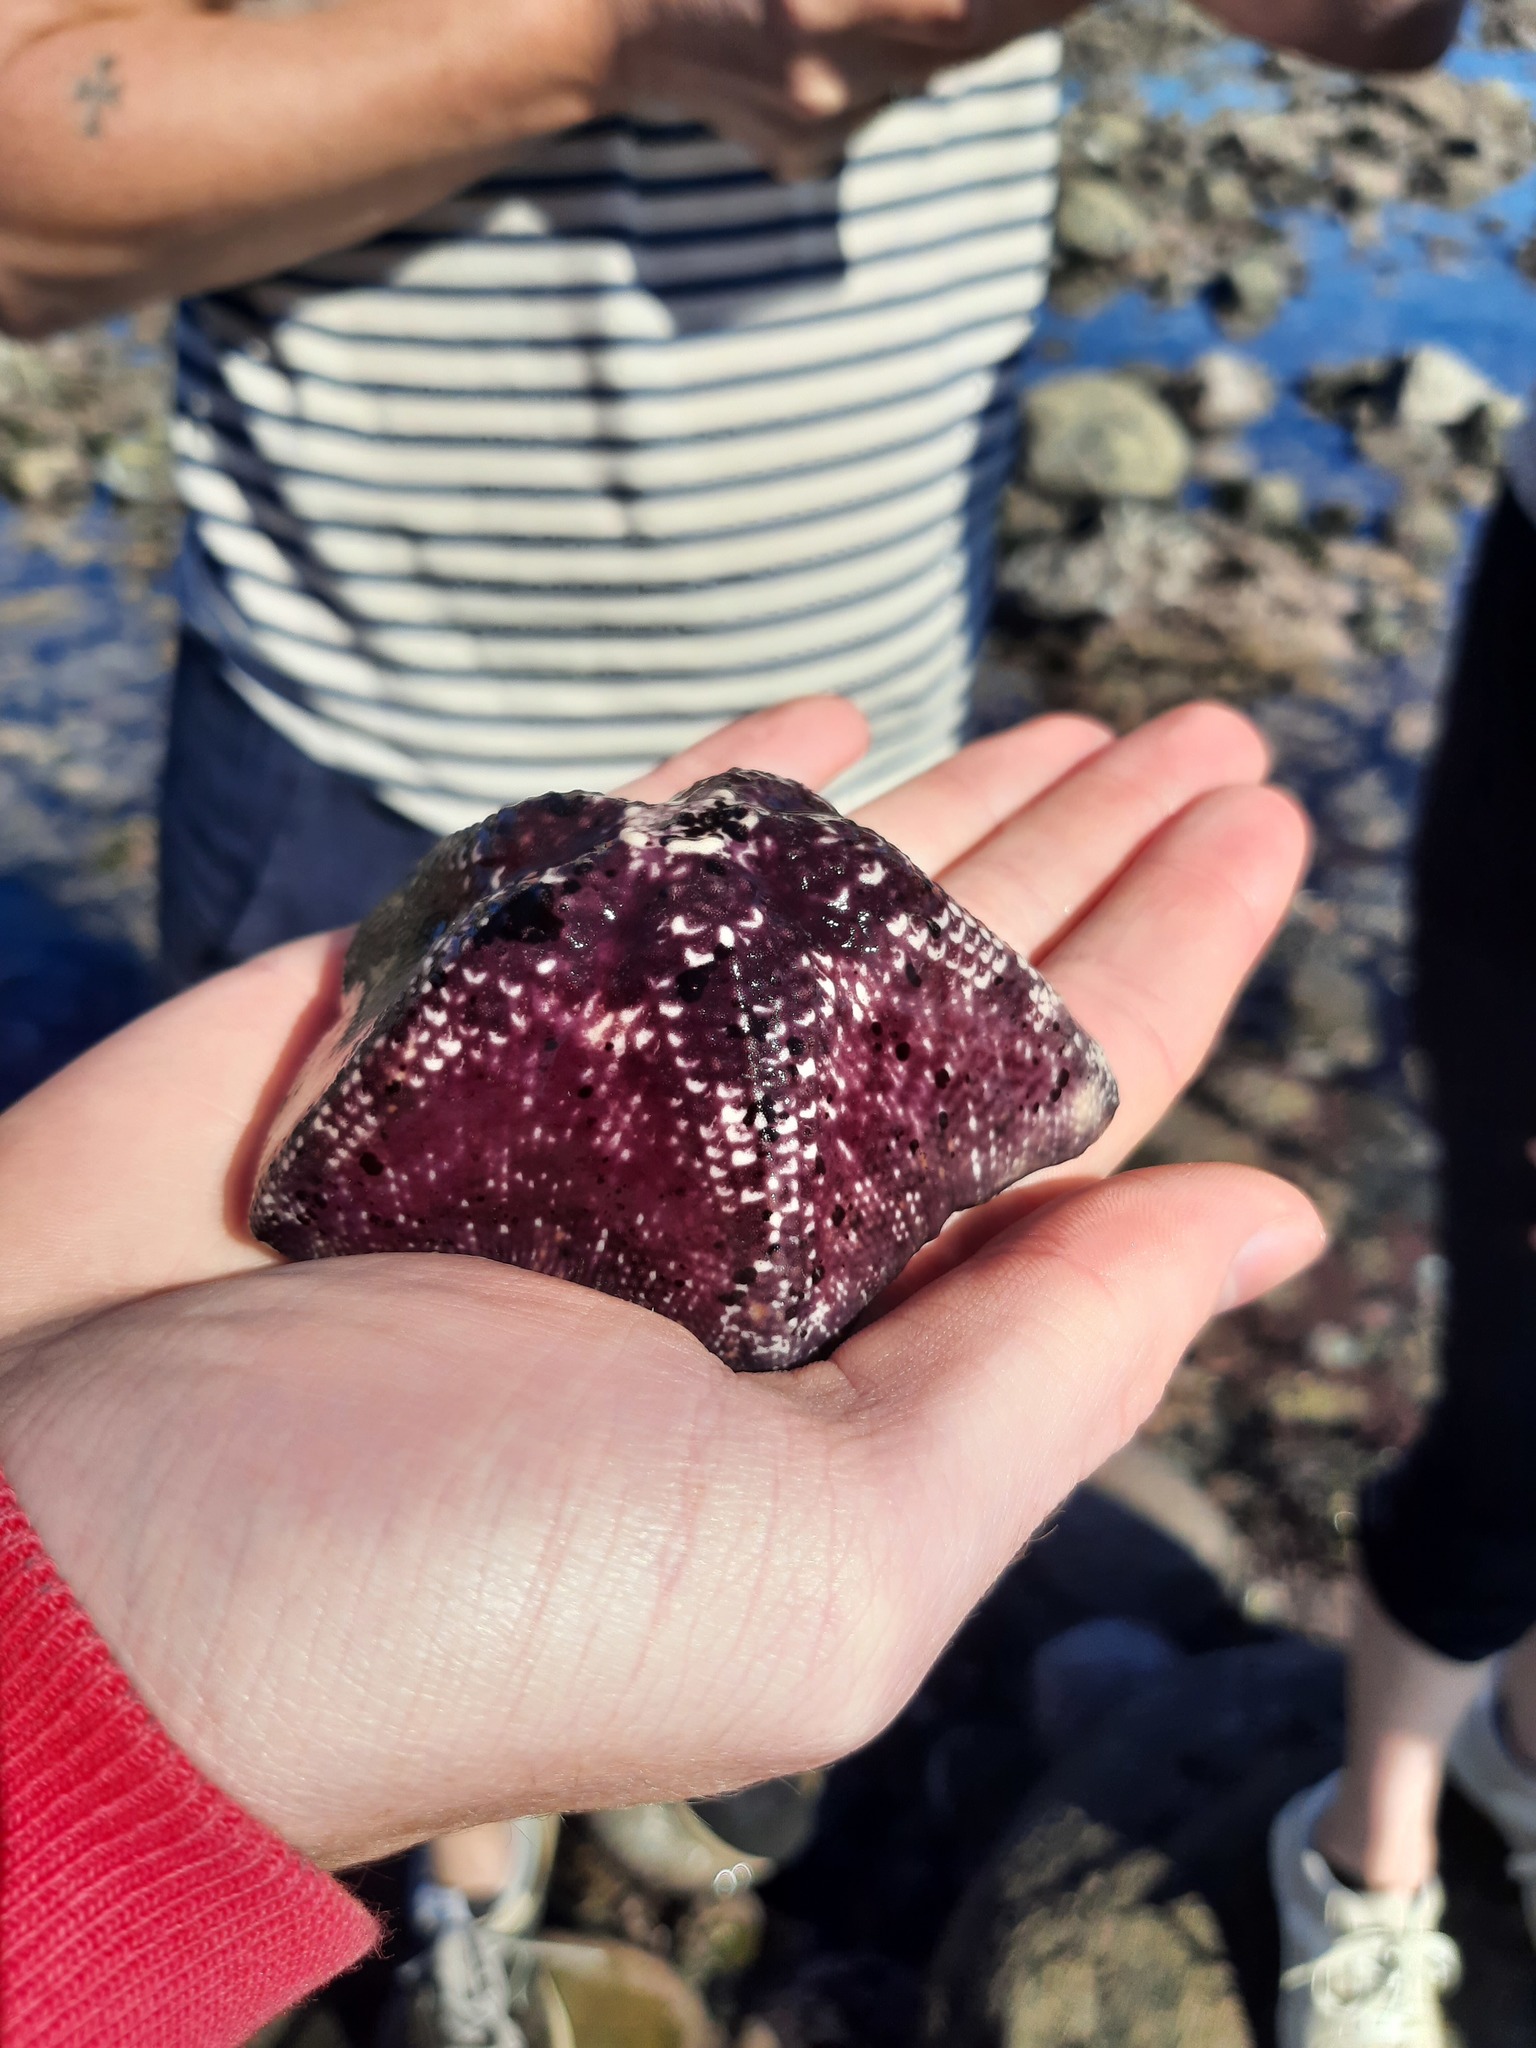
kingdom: Animalia
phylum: Echinodermata
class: Asteroidea
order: Valvatida
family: Asterinidae
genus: Stegnaster
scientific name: Stegnaster inflatus
